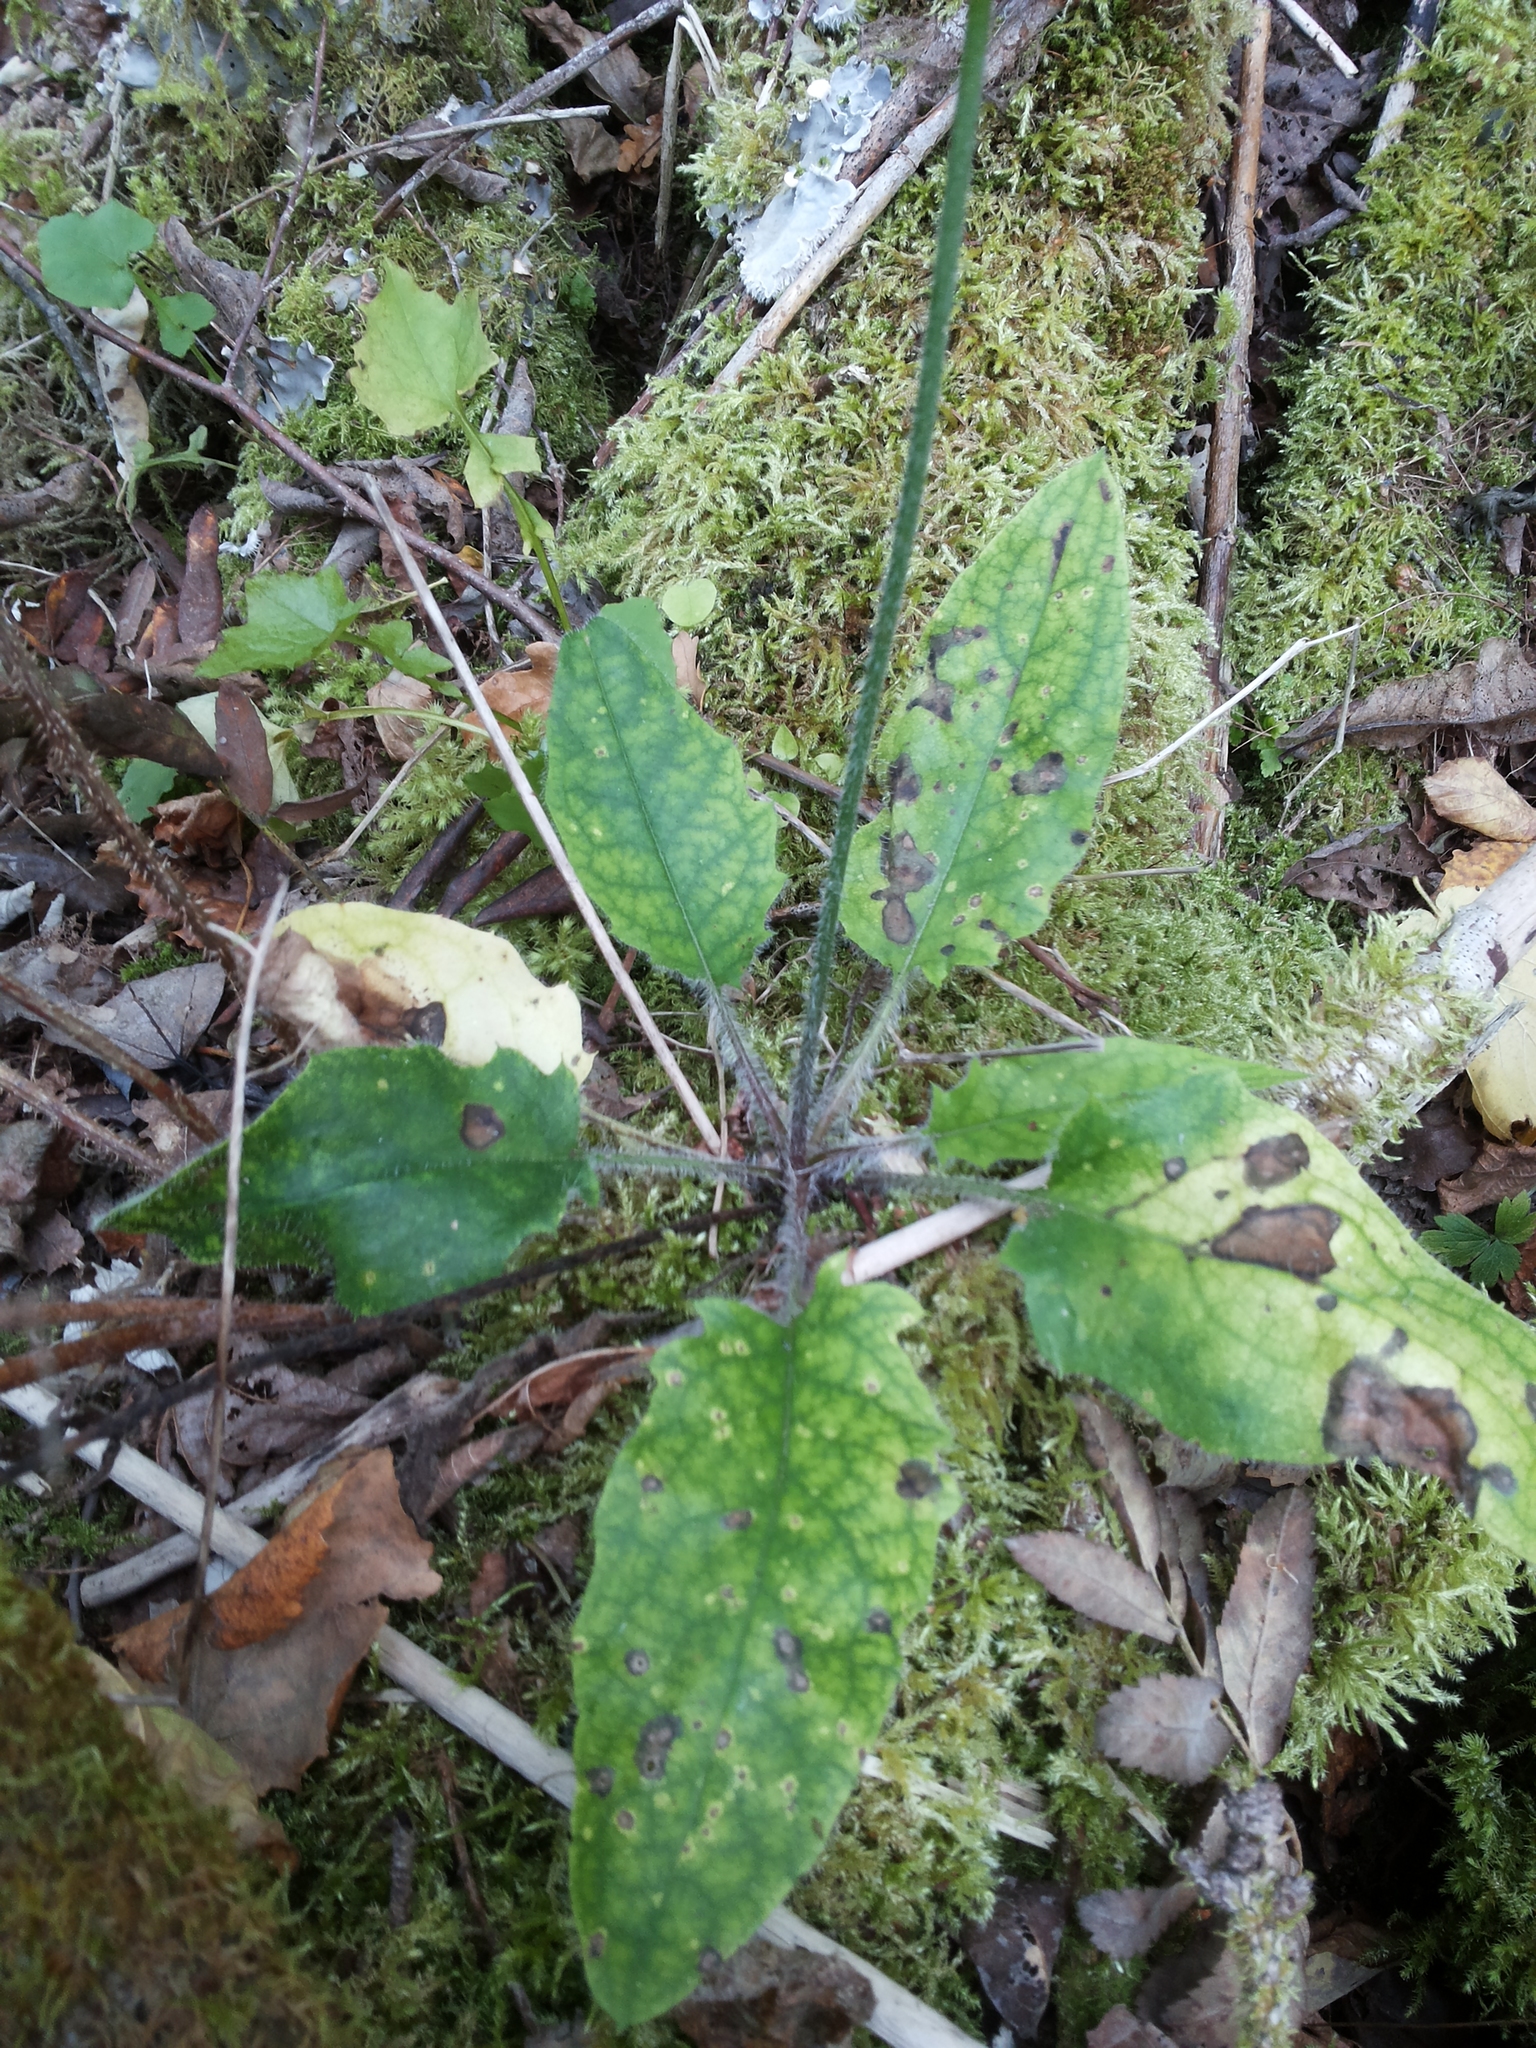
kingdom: Plantae
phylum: Tracheophyta
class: Magnoliopsida
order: Asterales
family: Asteraceae
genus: Hieracium
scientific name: Hieracium murorum
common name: Wall hawkweed
